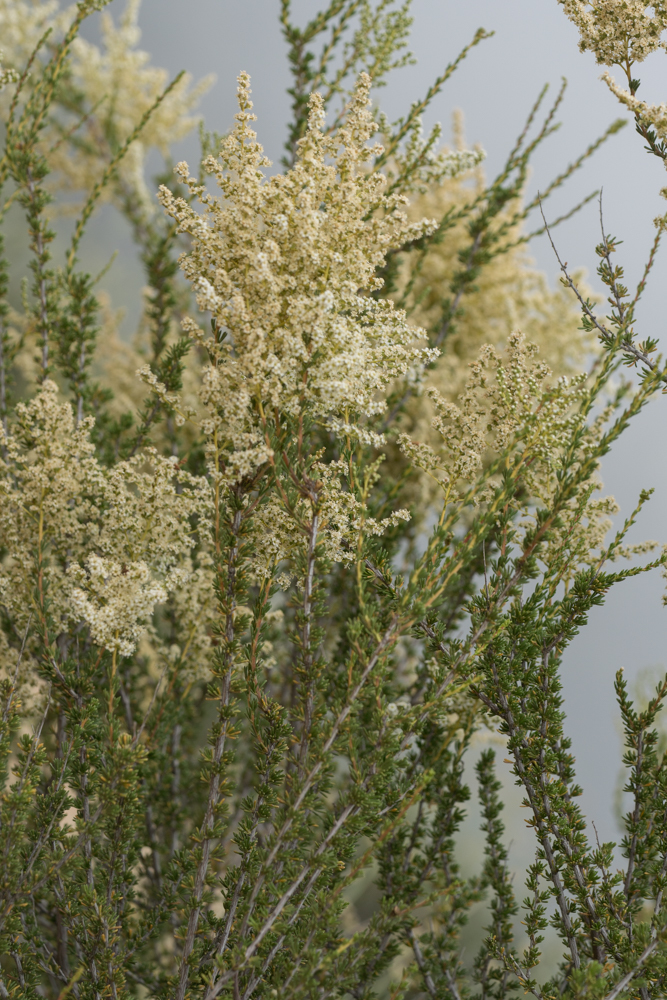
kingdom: Plantae
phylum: Tracheophyta
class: Magnoliopsida
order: Rosales
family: Rosaceae
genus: Adenostoma
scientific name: Adenostoma fasciculatum
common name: Chamise
